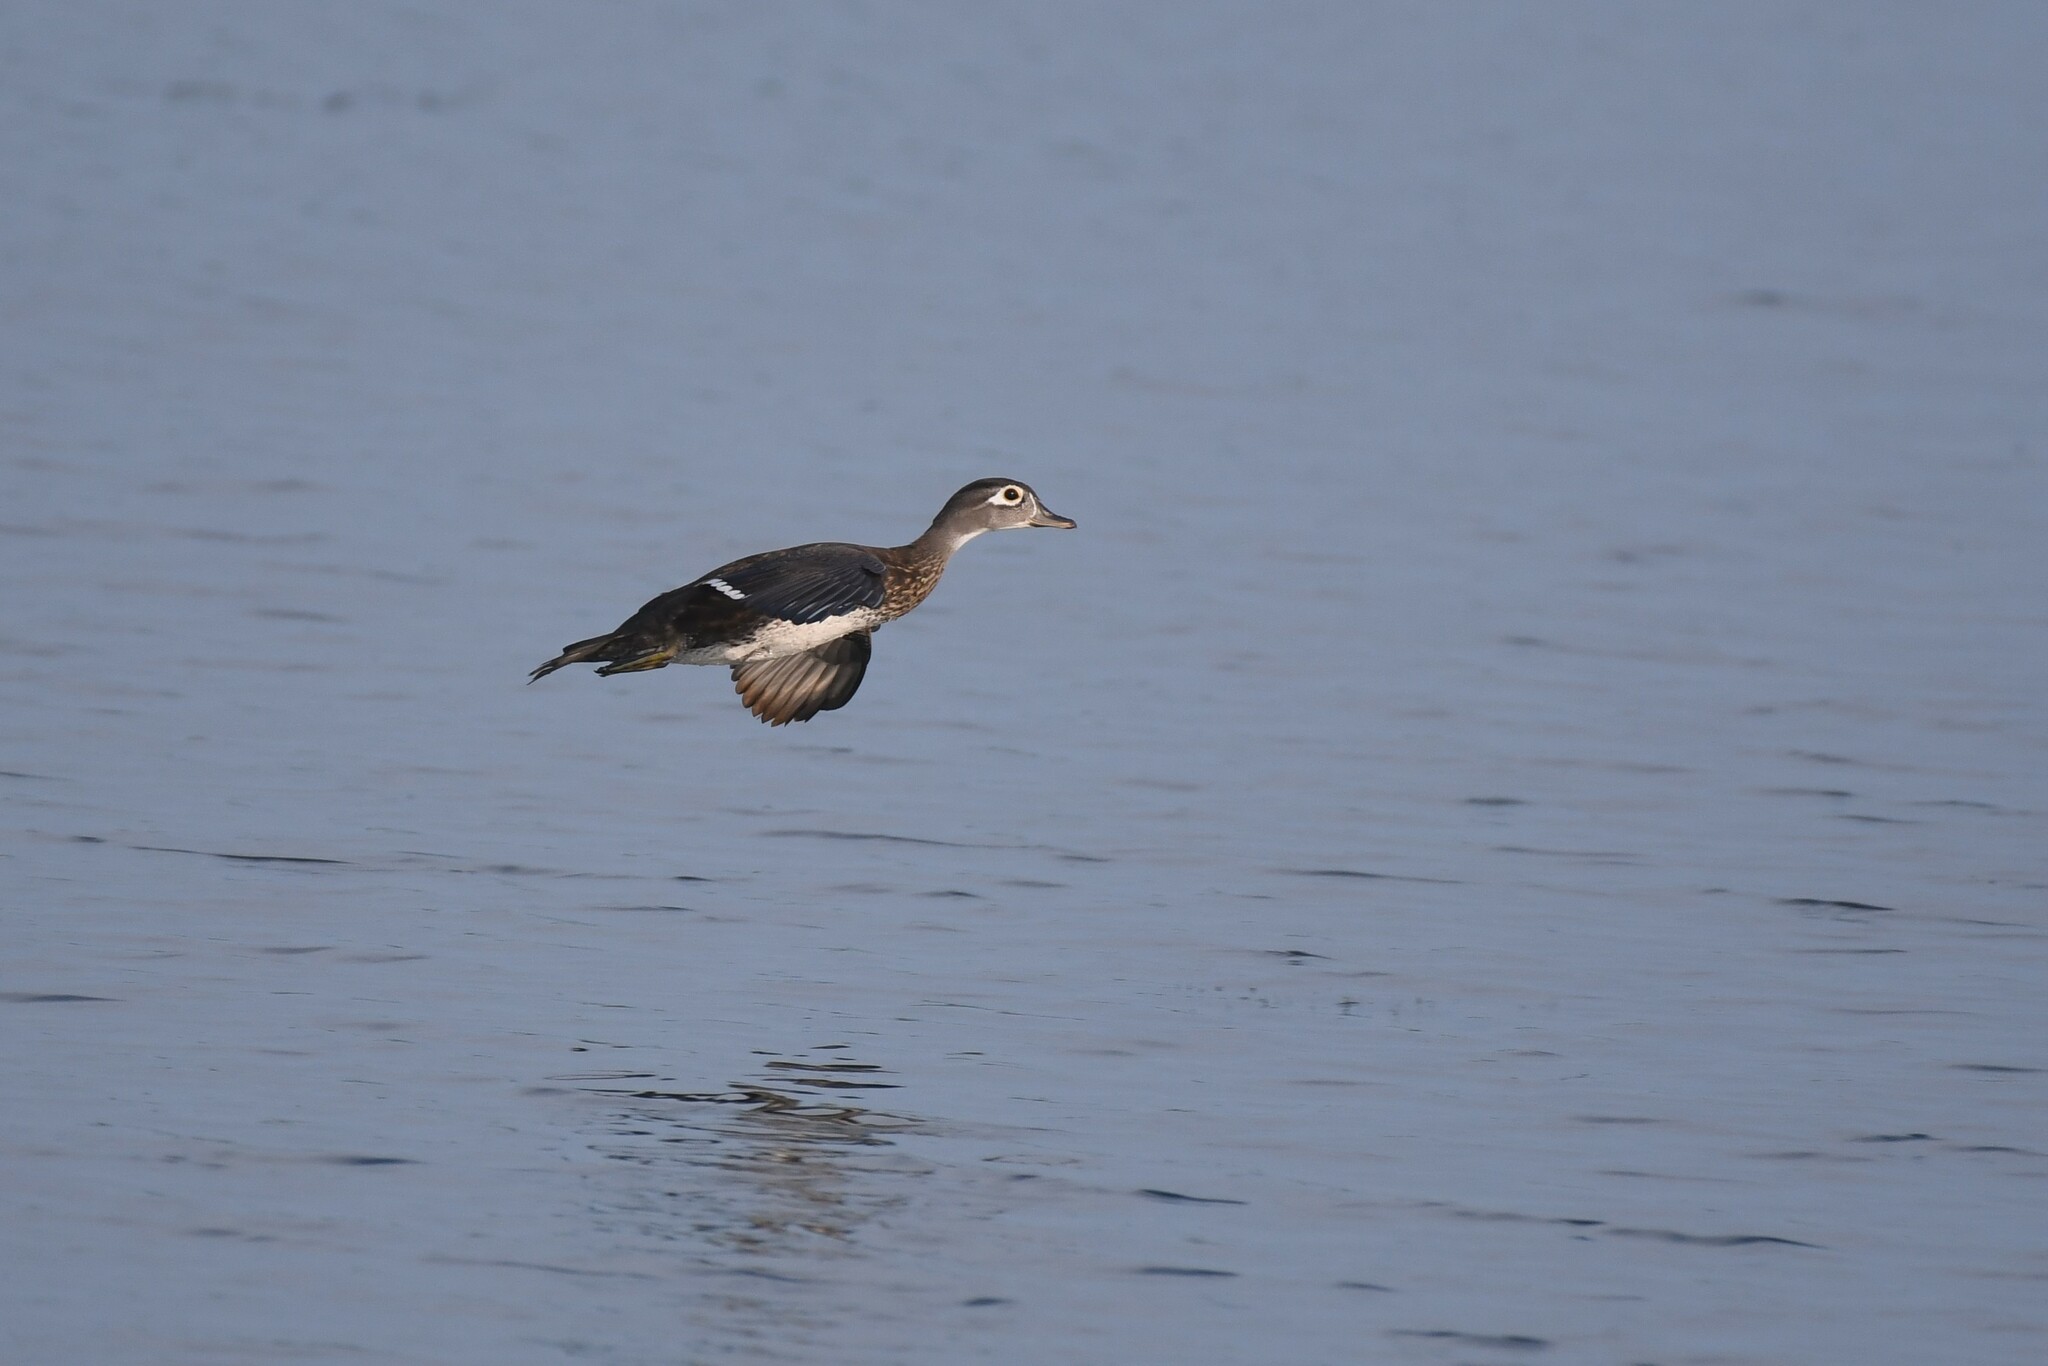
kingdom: Animalia
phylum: Chordata
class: Aves
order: Anseriformes
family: Anatidae
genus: Aix
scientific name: Aix sponsa
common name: Wood duck
